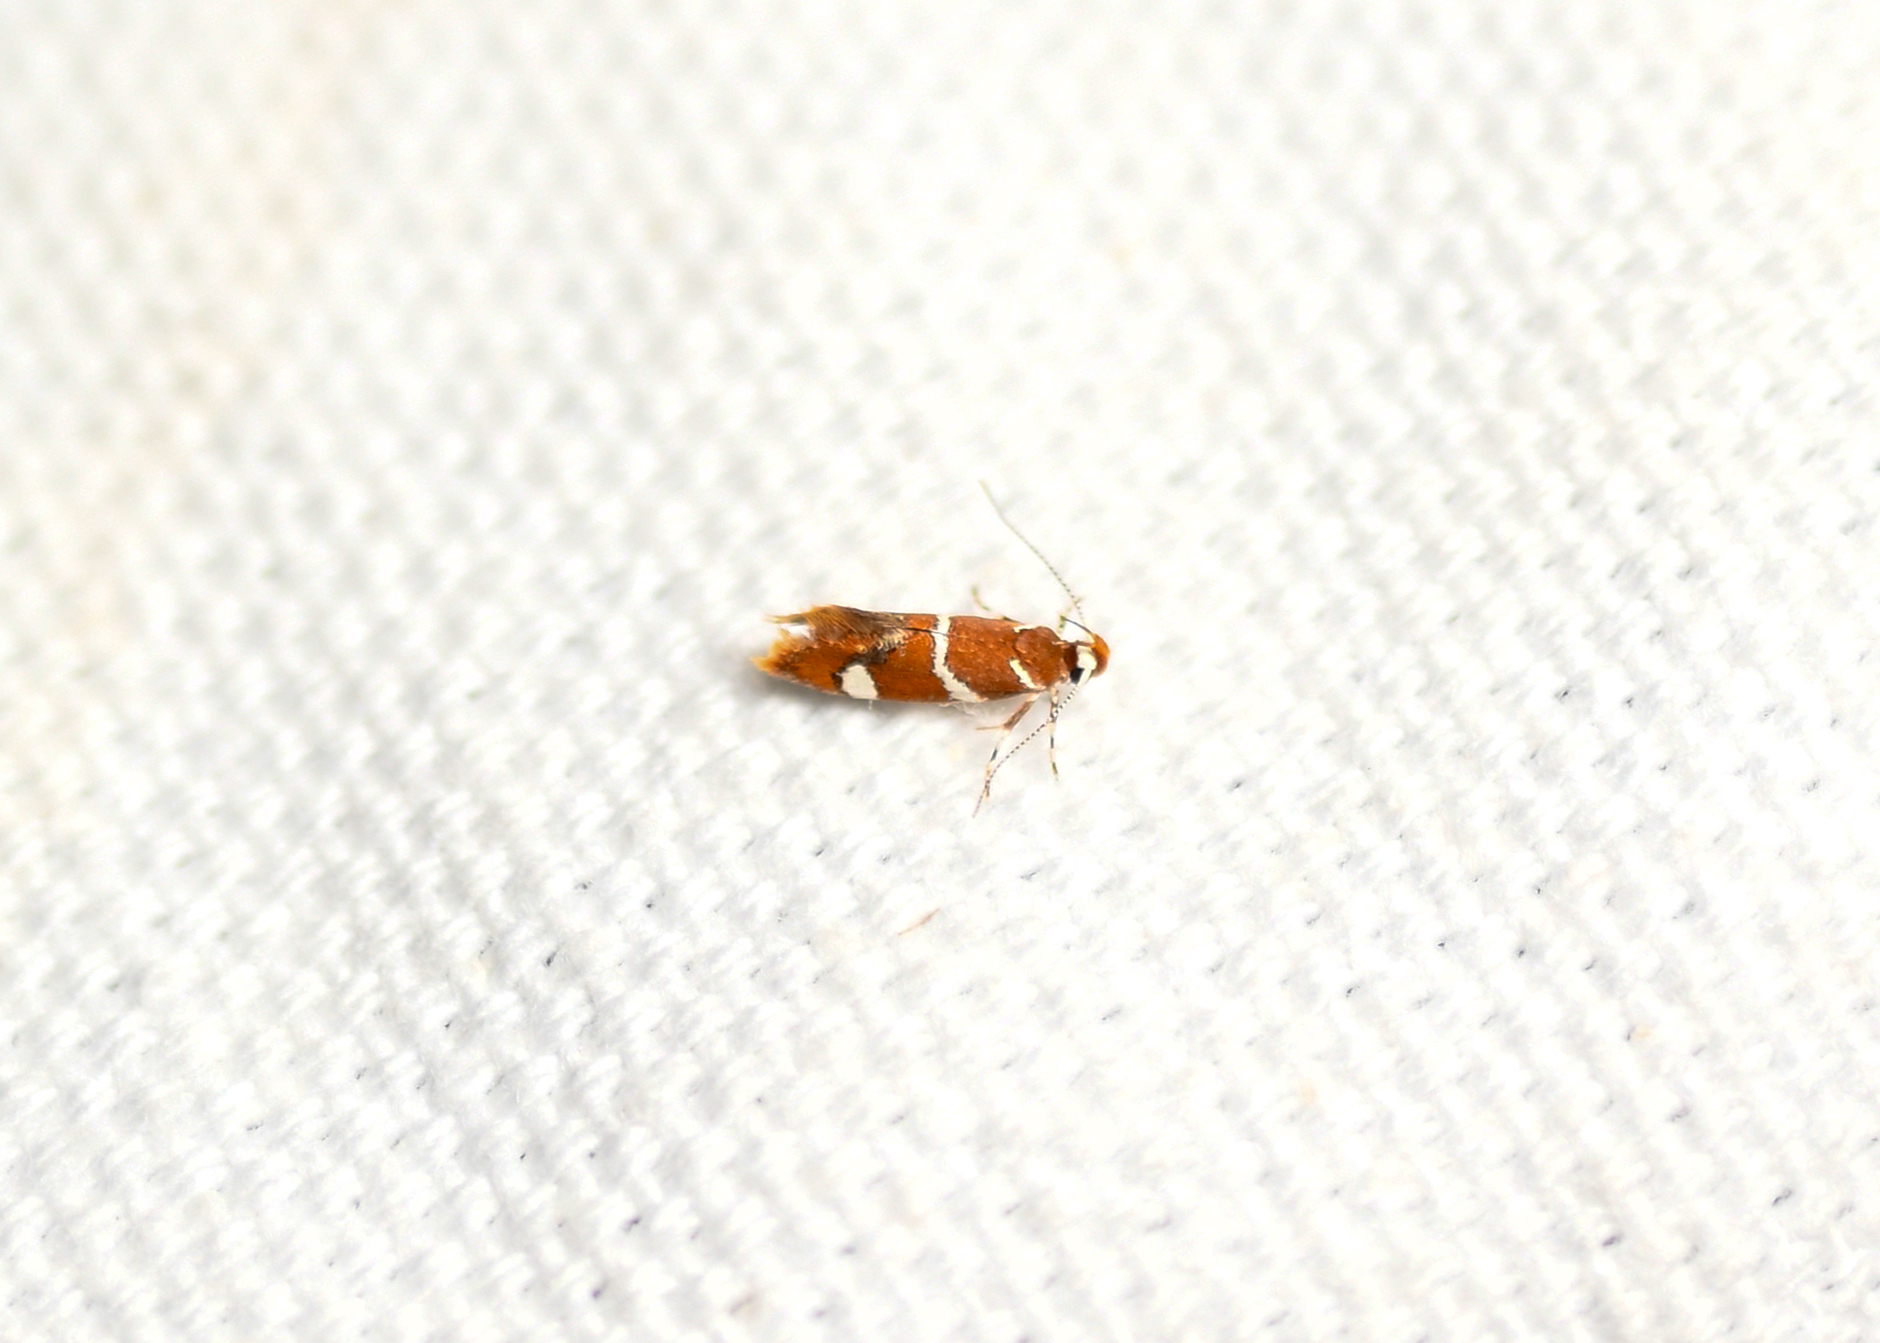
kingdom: Animalia
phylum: Arthropoda
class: Insecta
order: Lepidoptera
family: Oecophoridae
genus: Promalactis
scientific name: Promalactis suzukiella
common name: Moth
